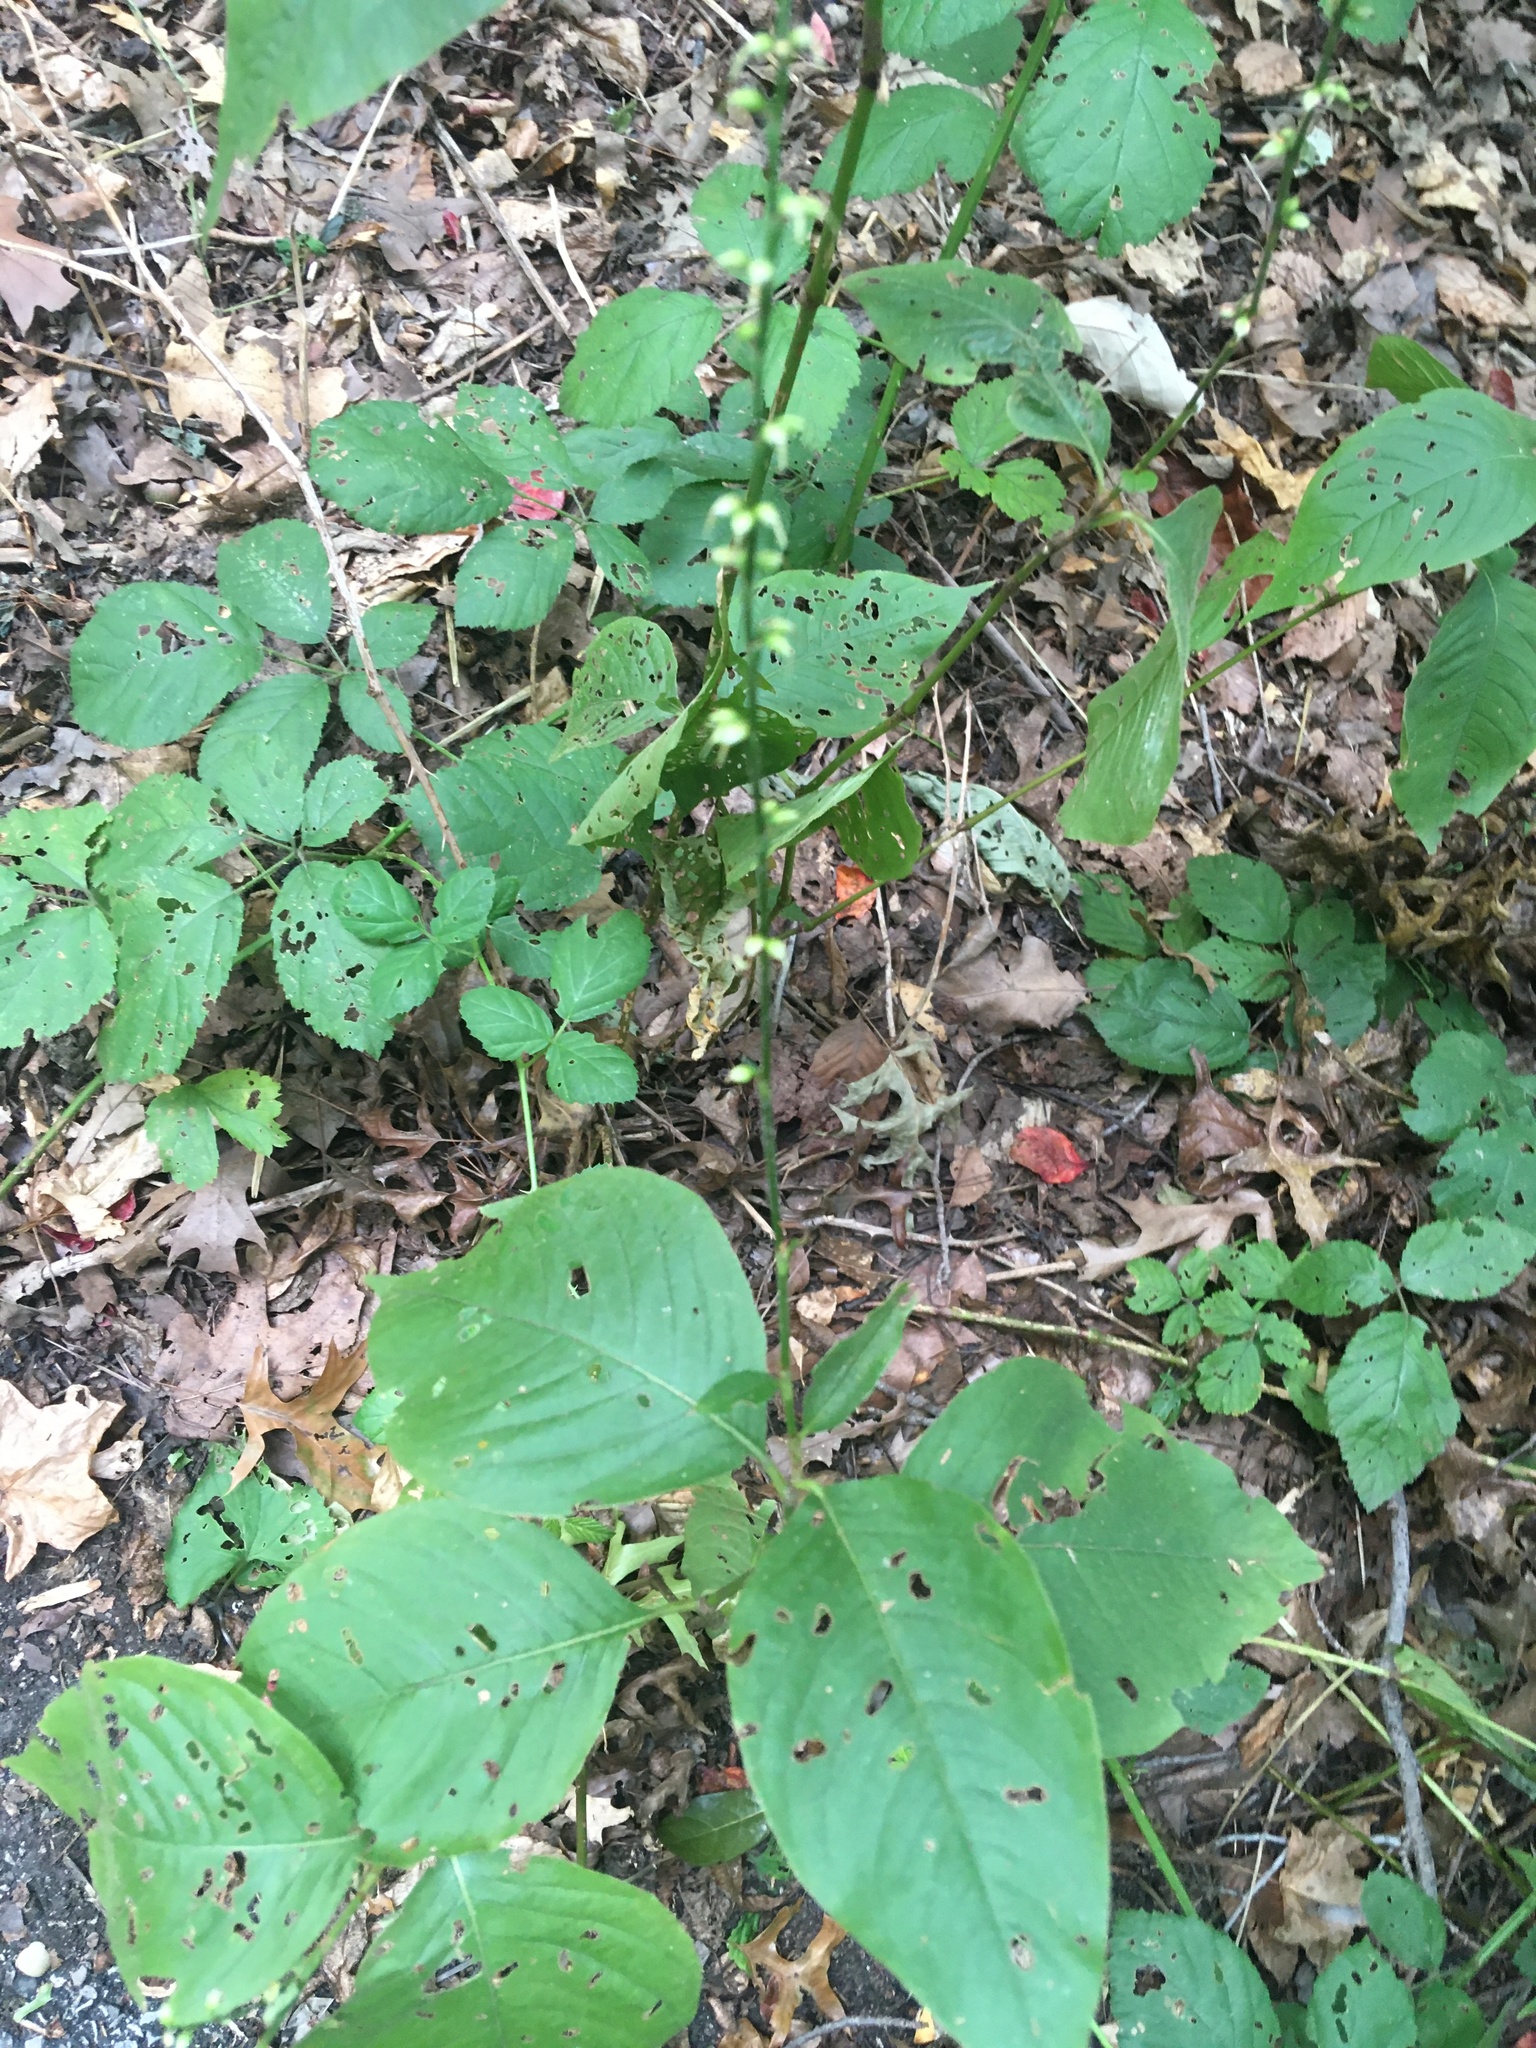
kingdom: Plantae
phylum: Tracheophyta
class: Magnoliopsida
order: Caryophyllales
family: Polygonaceae
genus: Persicaria
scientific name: Persicaria virginiana
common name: Jumpseed
